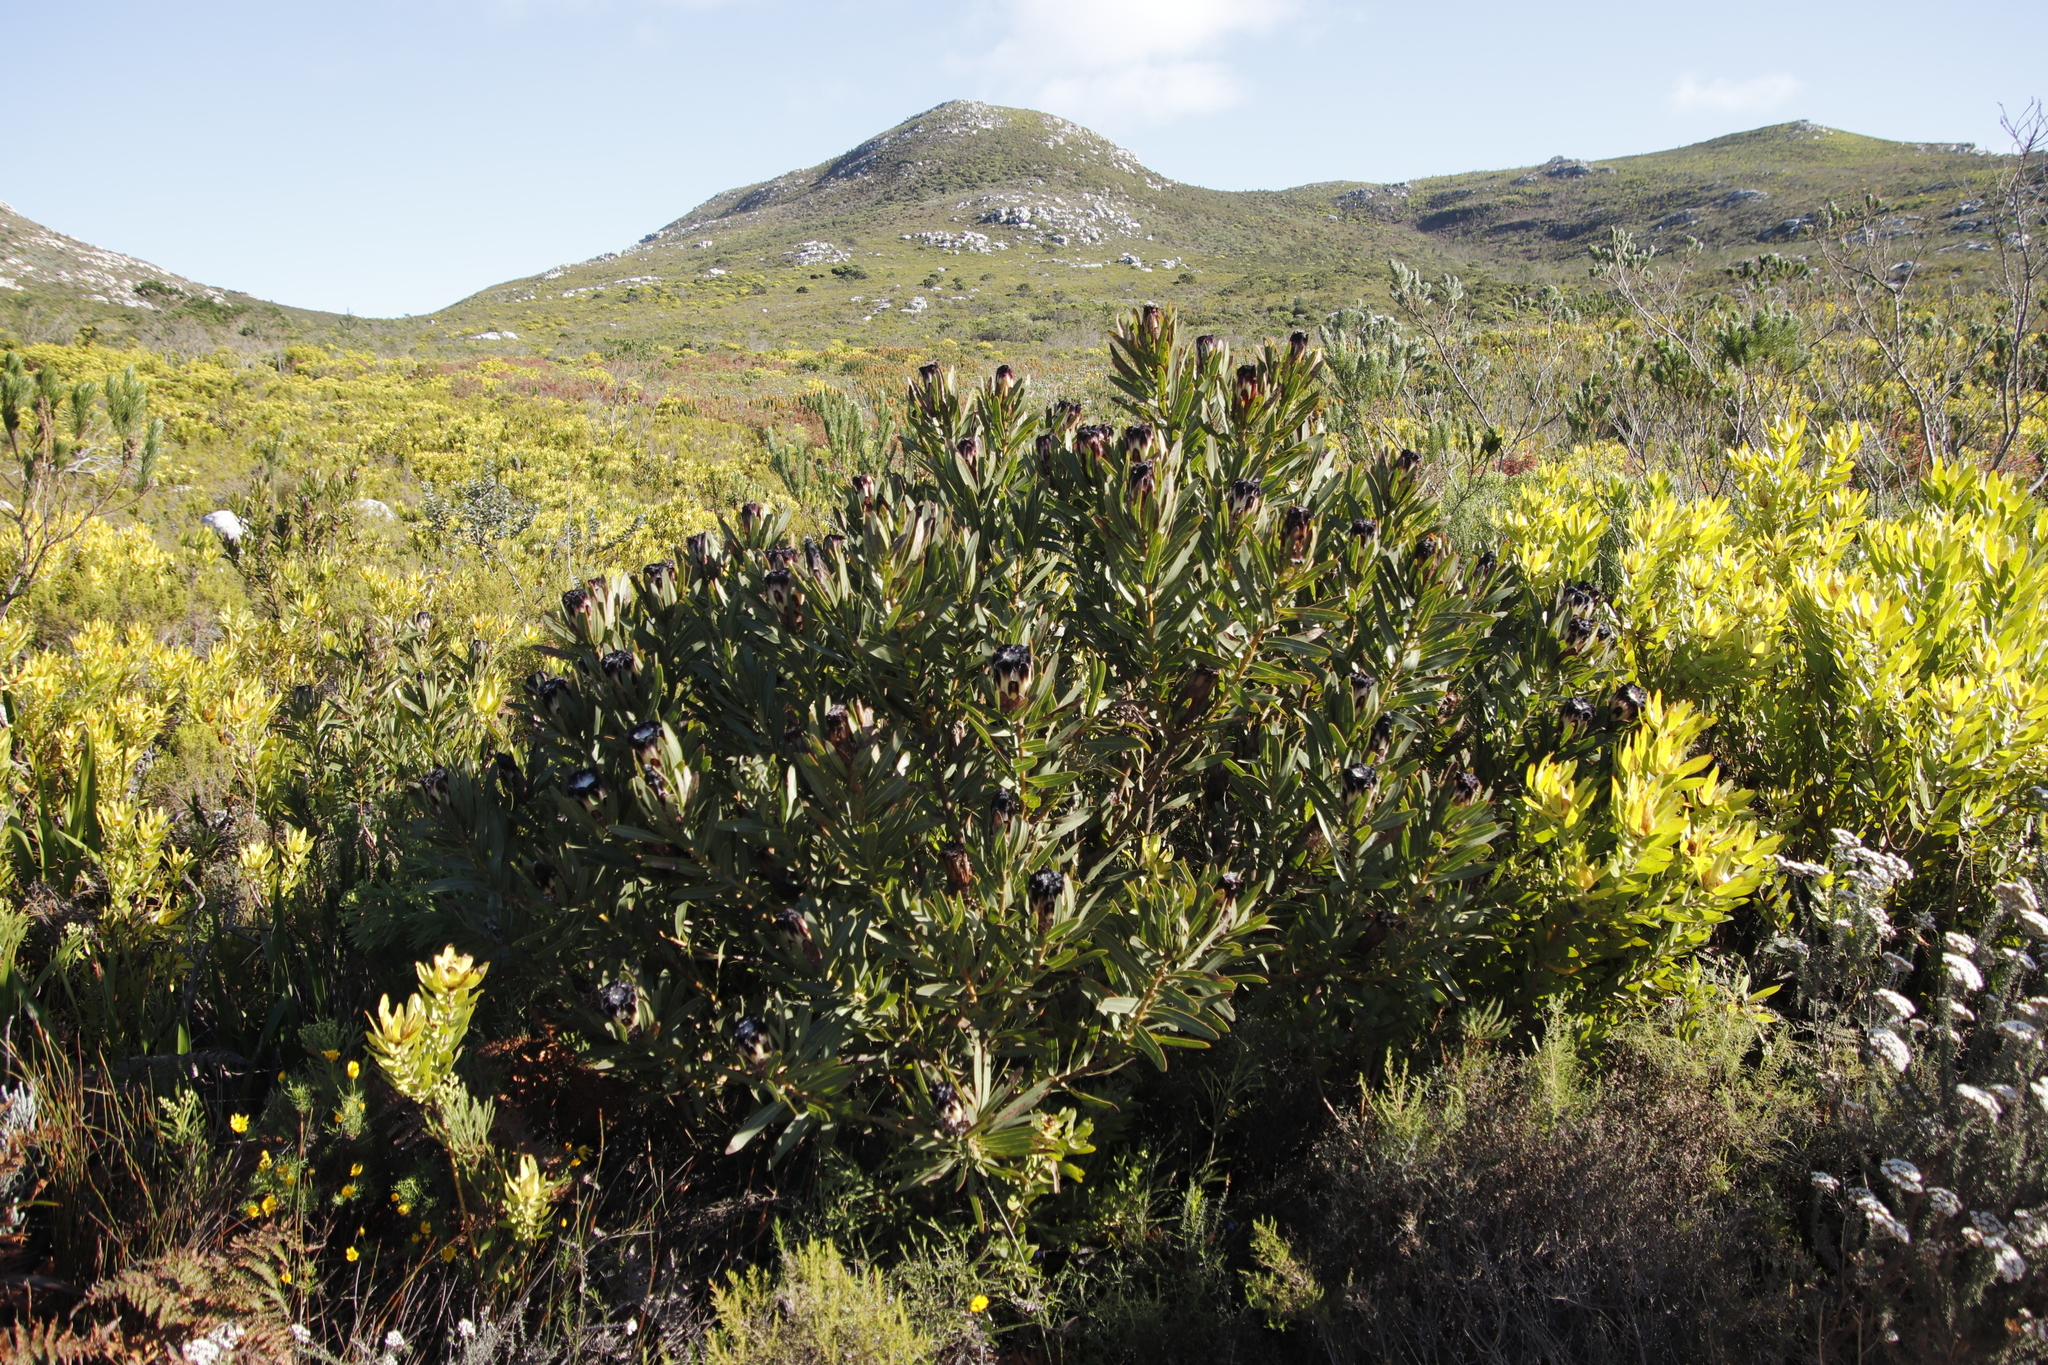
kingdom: Plantae
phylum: Tracheophyta
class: Magnoliopsida
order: Proteales
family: Proteaceae
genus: Protea
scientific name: Protea lepidocarpodendron
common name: Black-bearded protea
